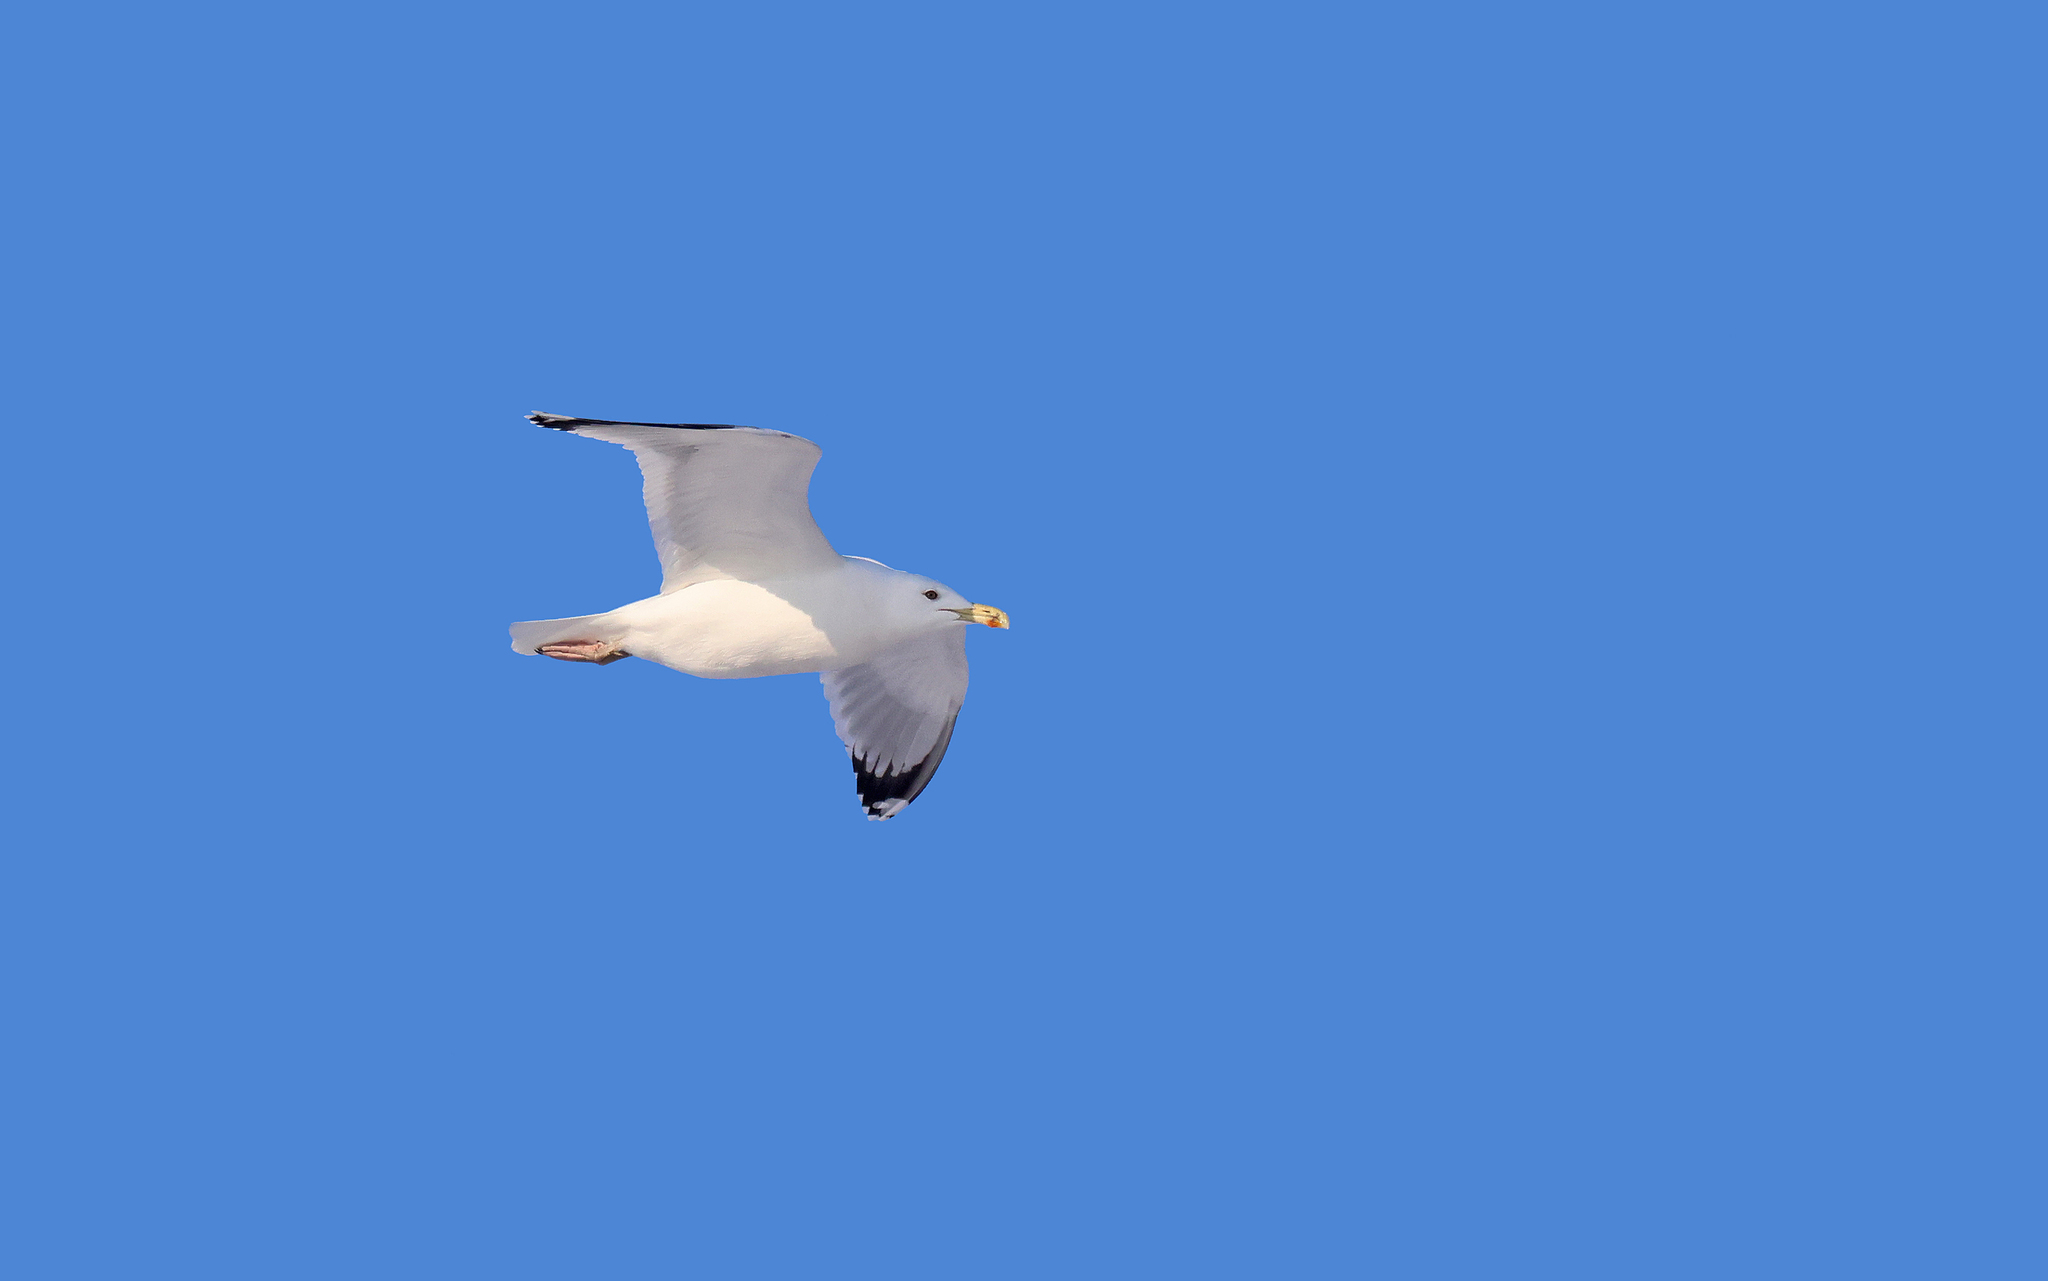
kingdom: Animalia
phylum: Chordata
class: Aves
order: Charadriiformes
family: Laridae
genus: Larus
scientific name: Larus michahellis
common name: Yellow-legged gull
